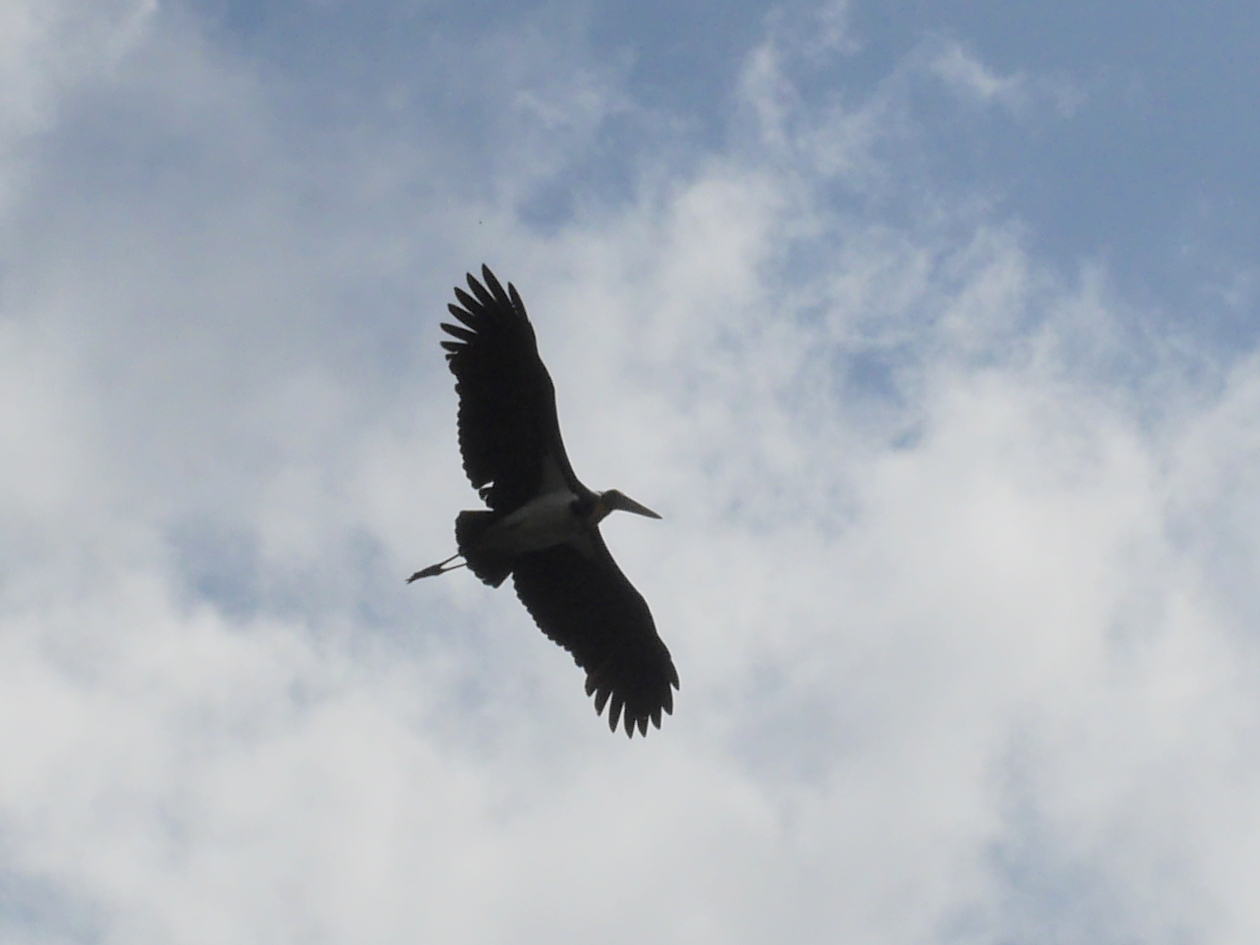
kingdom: Animalia
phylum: Chordata
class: Aves
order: Ciconiiformes
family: Ciconiidae
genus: Leptoptilos
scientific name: Leptoptilos javanicus
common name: Lesser adjutant
